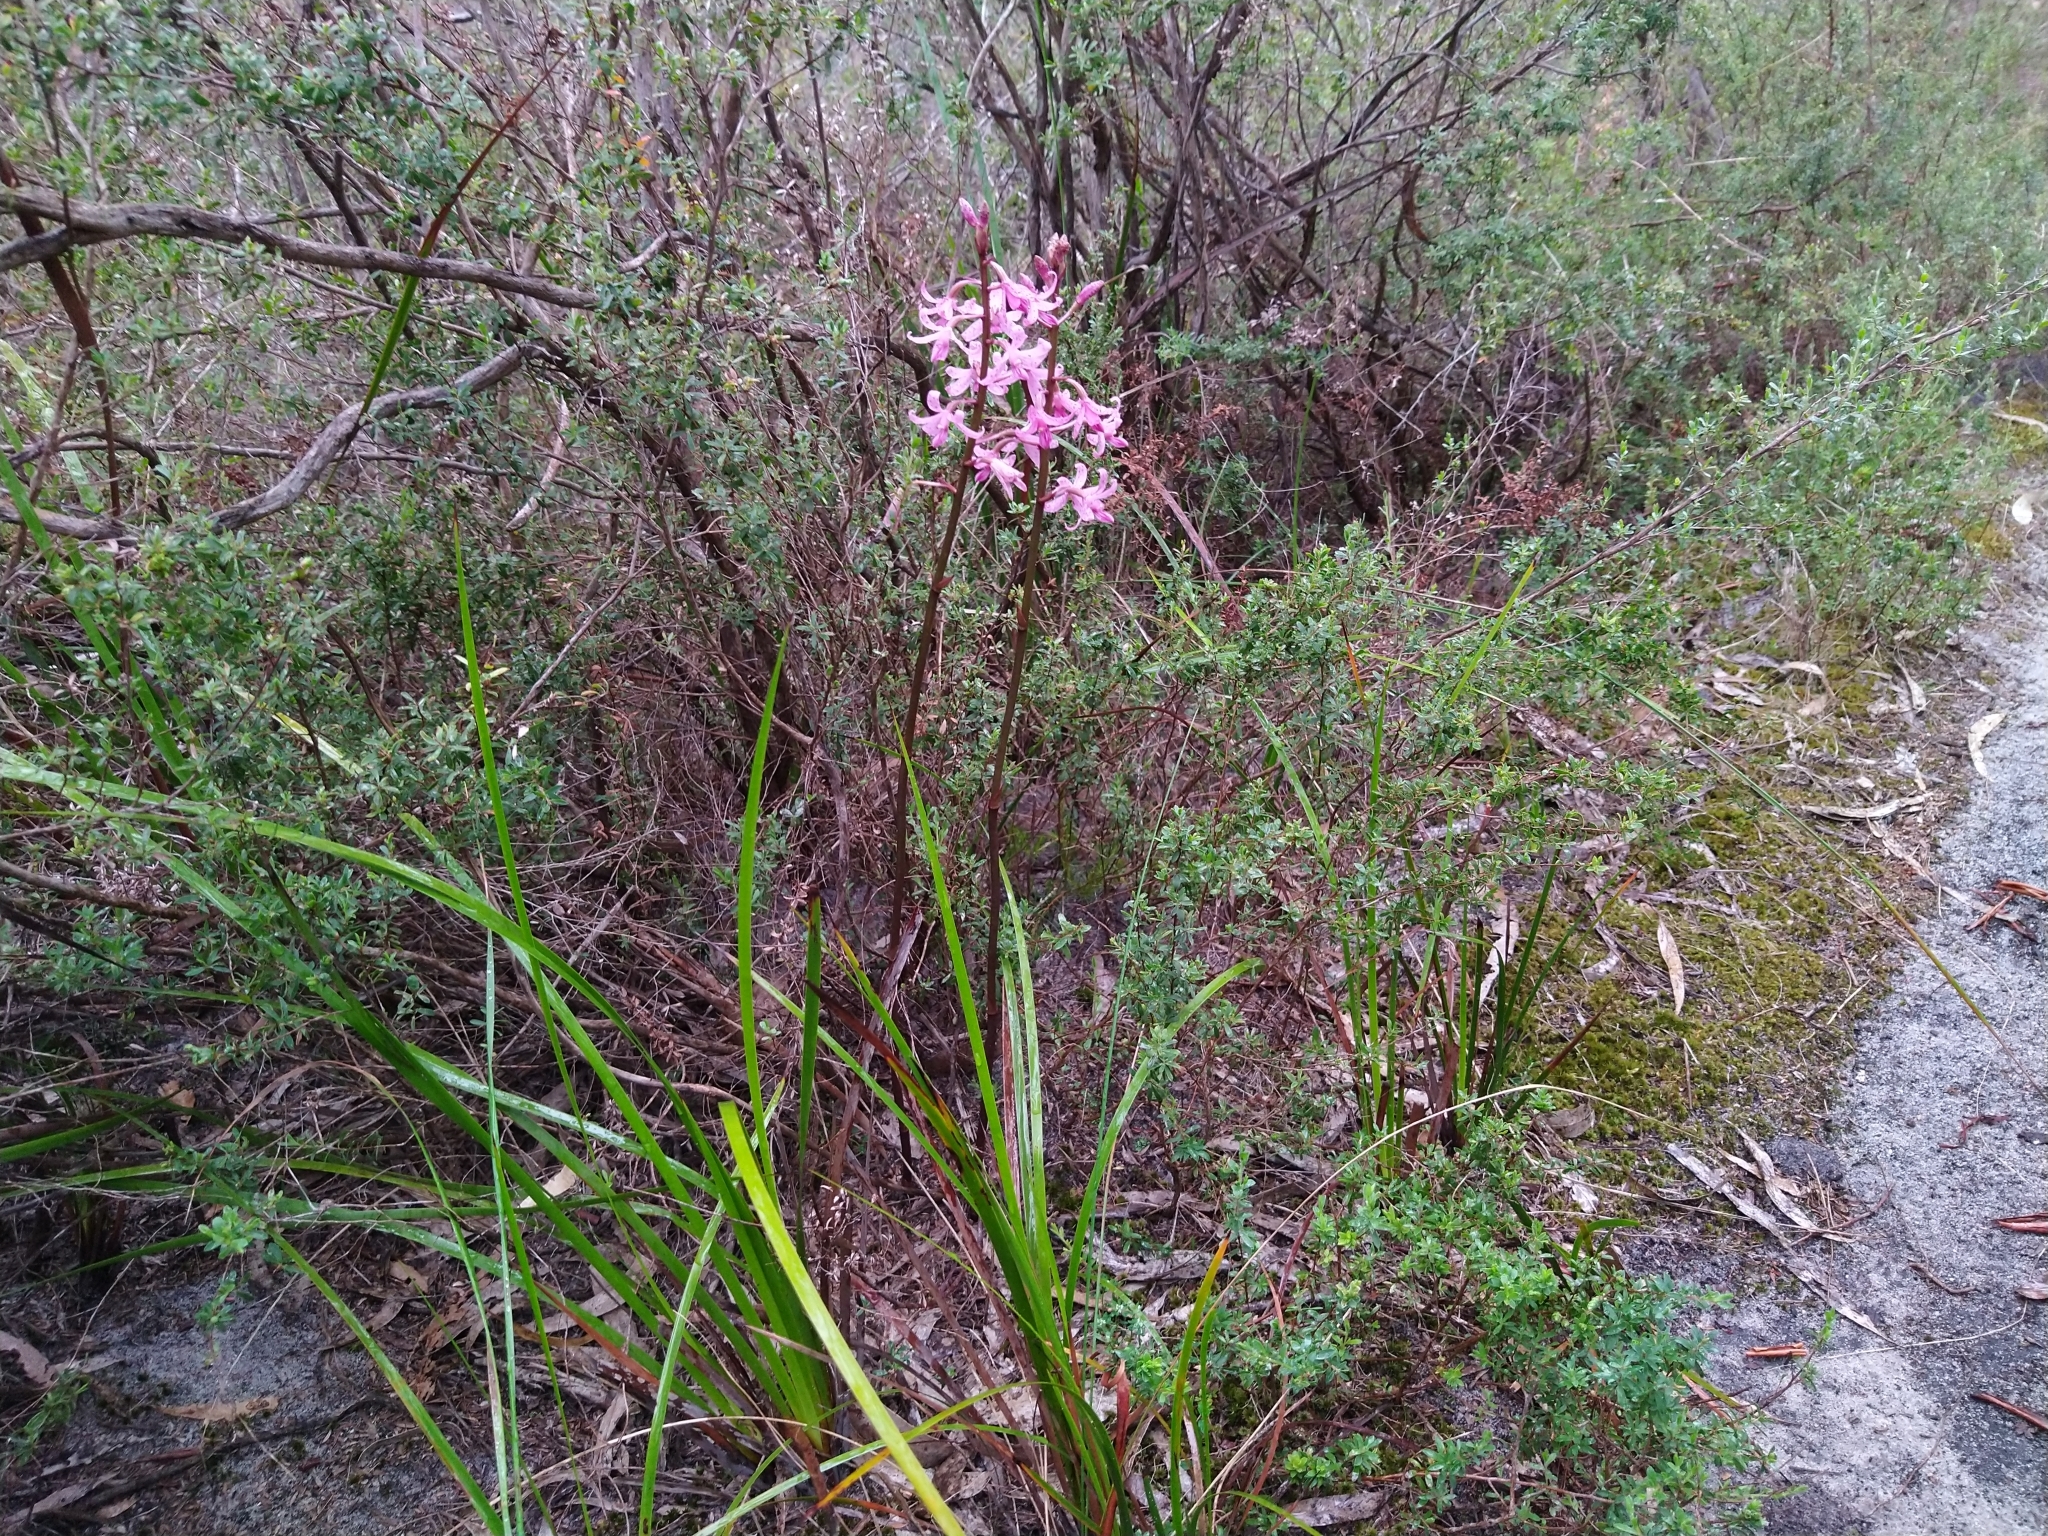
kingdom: Plantae
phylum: Tracheophyta
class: Liliopsida
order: Asparagales
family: Orchidaceae
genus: Dipodium
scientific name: Dipodium roseum
